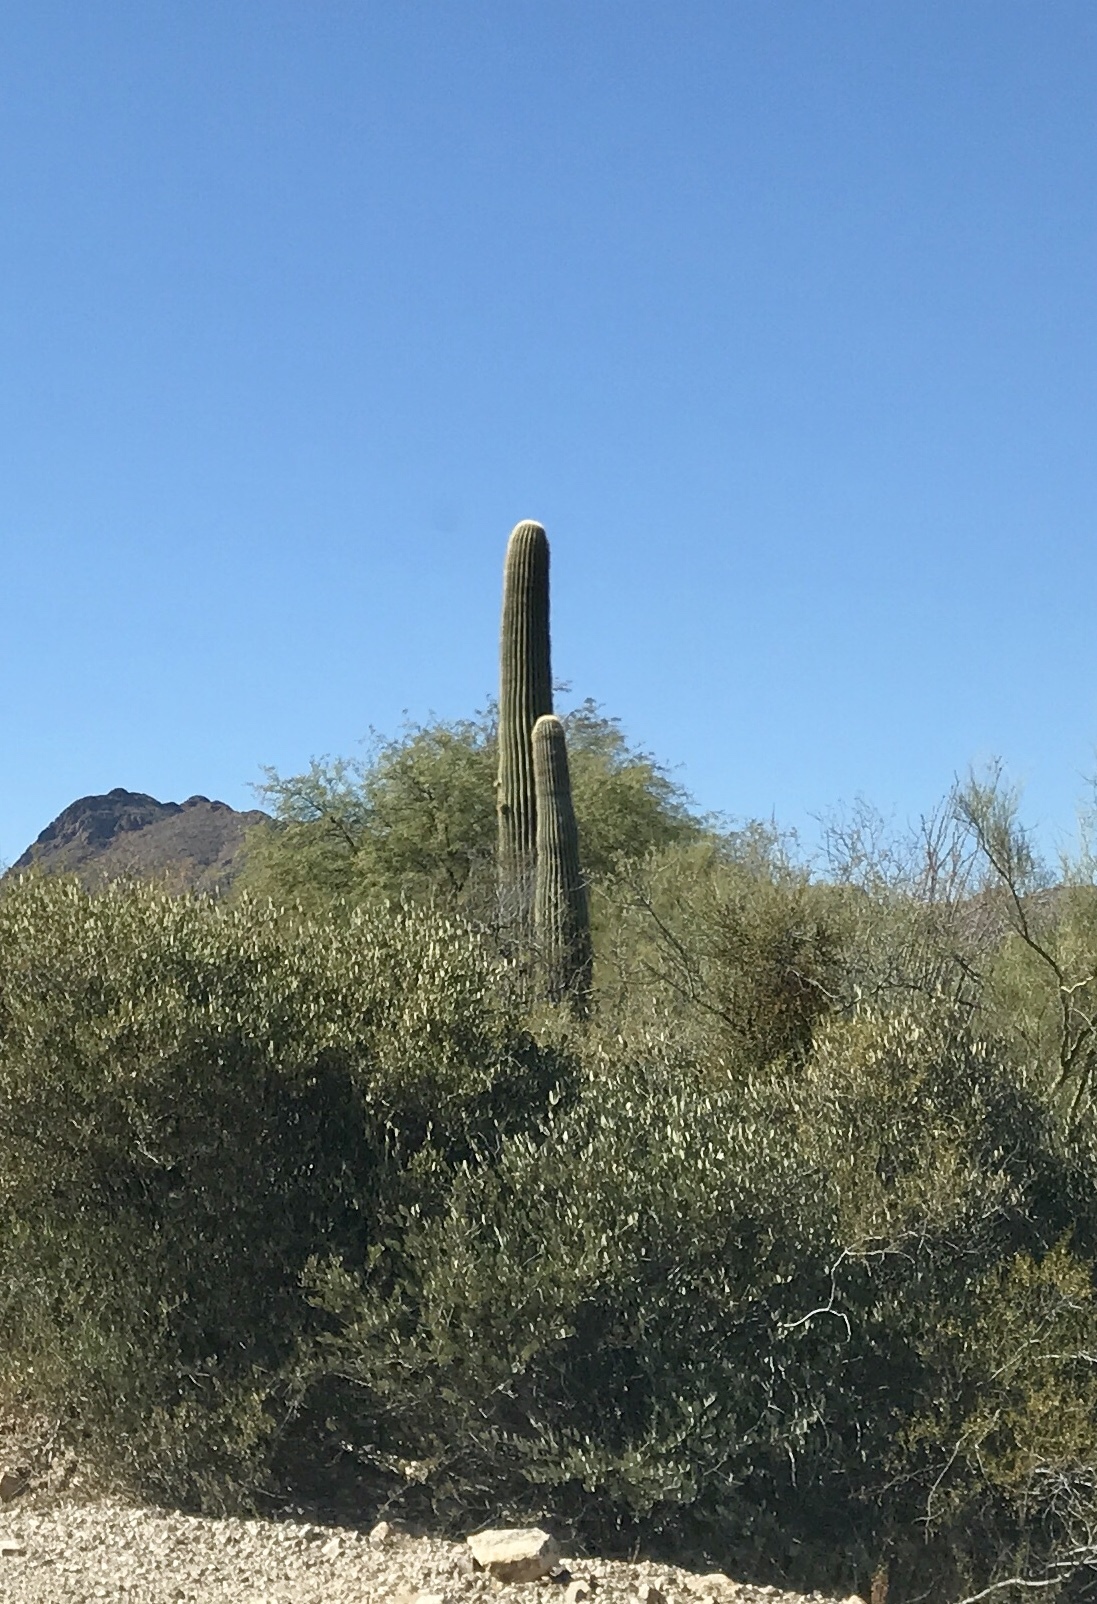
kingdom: Plantae
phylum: Tracheophyta
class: Magnoliopsida
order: Caryophyllales
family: Cactaceae
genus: Carnegiea
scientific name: Carnegiea gigantea
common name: Saguaro
